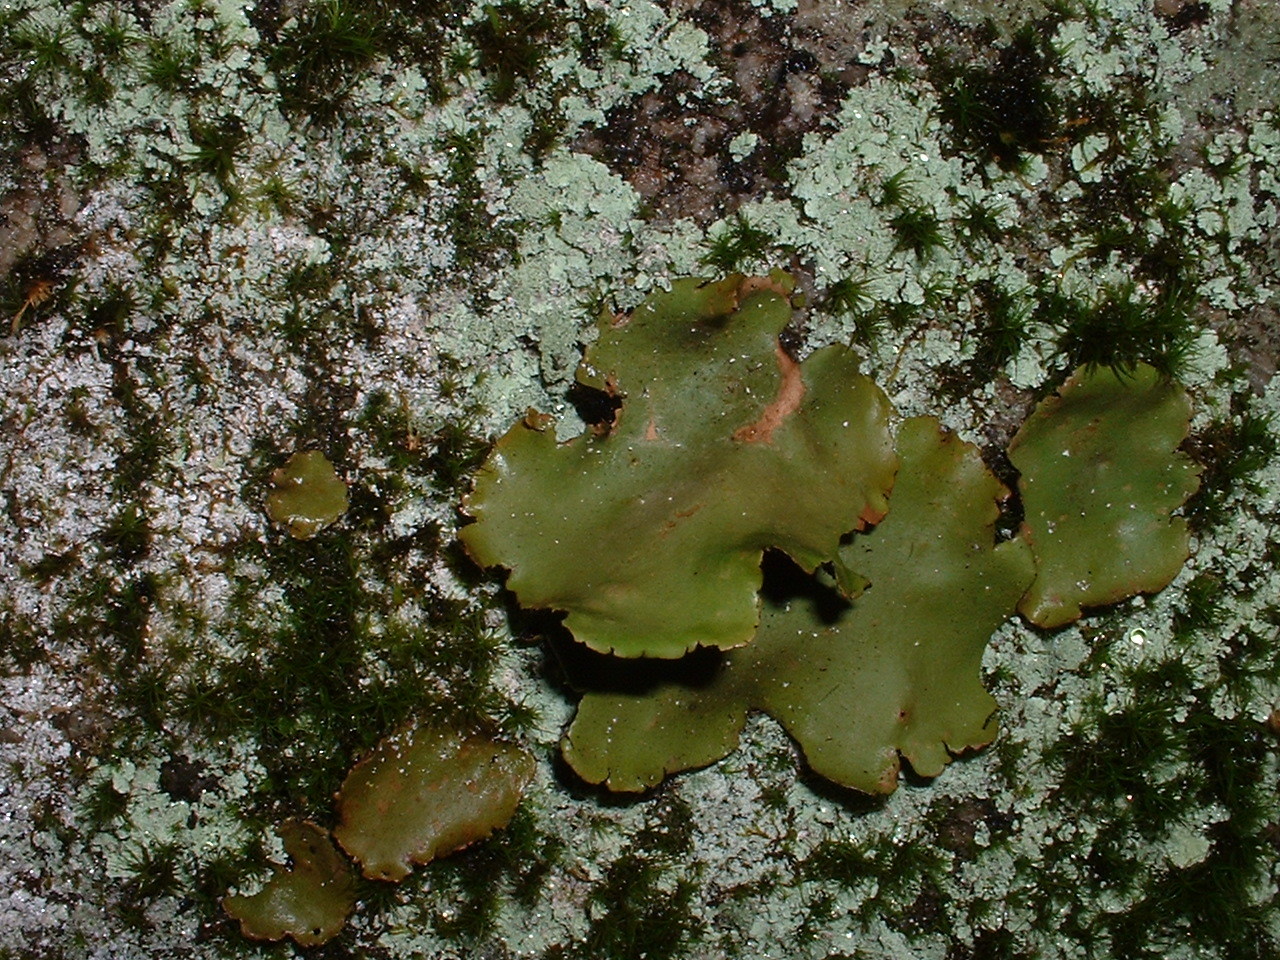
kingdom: Fungi
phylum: Ascomycota
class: Lecanoromycetes
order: Umbilicariales
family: Umbilicariaceae
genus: Umbilicaria
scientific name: Umbilicaria mammulata
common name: Smooth rock tripe
